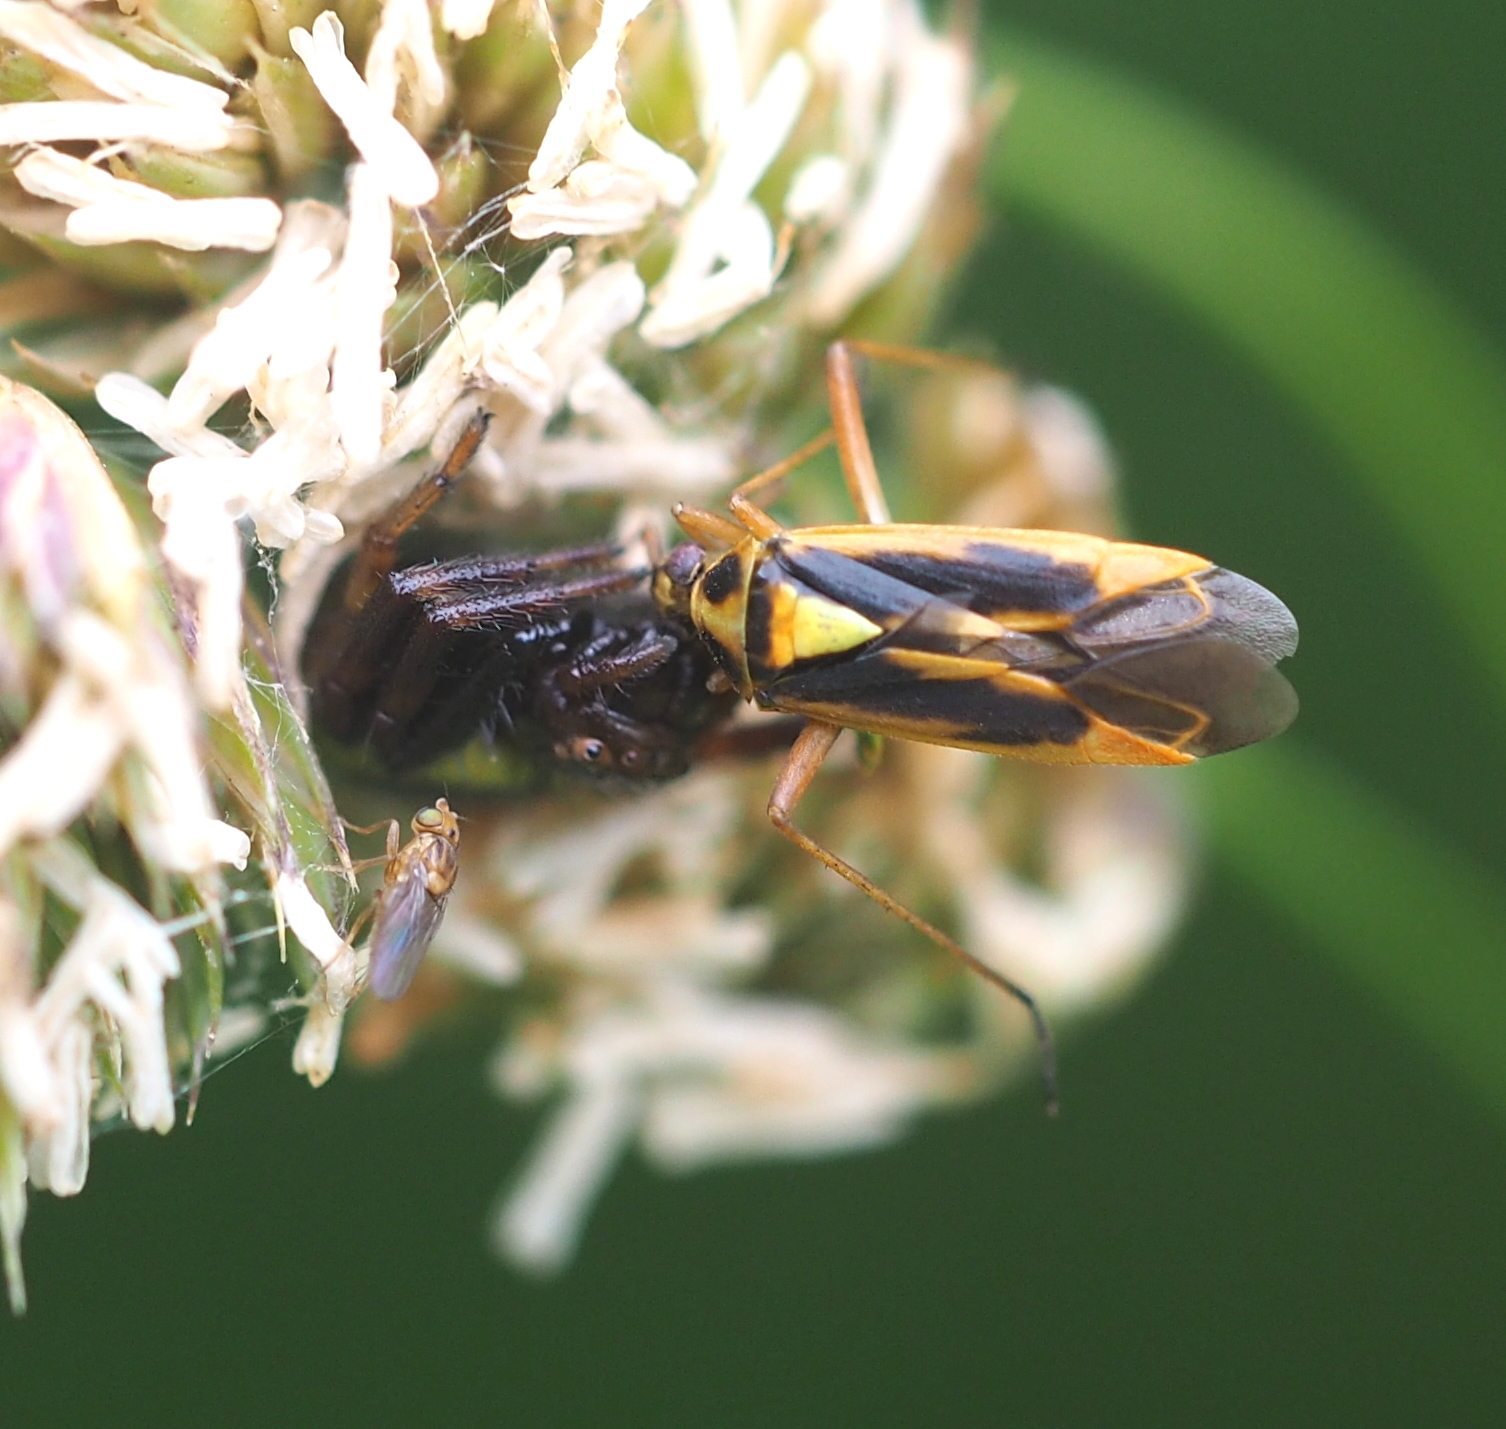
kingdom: Animalia
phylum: Arthropoda
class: Insecta
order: Hemiptera
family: Miridae
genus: Stenotus
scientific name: Stenotus binotatus
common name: Plant bug
